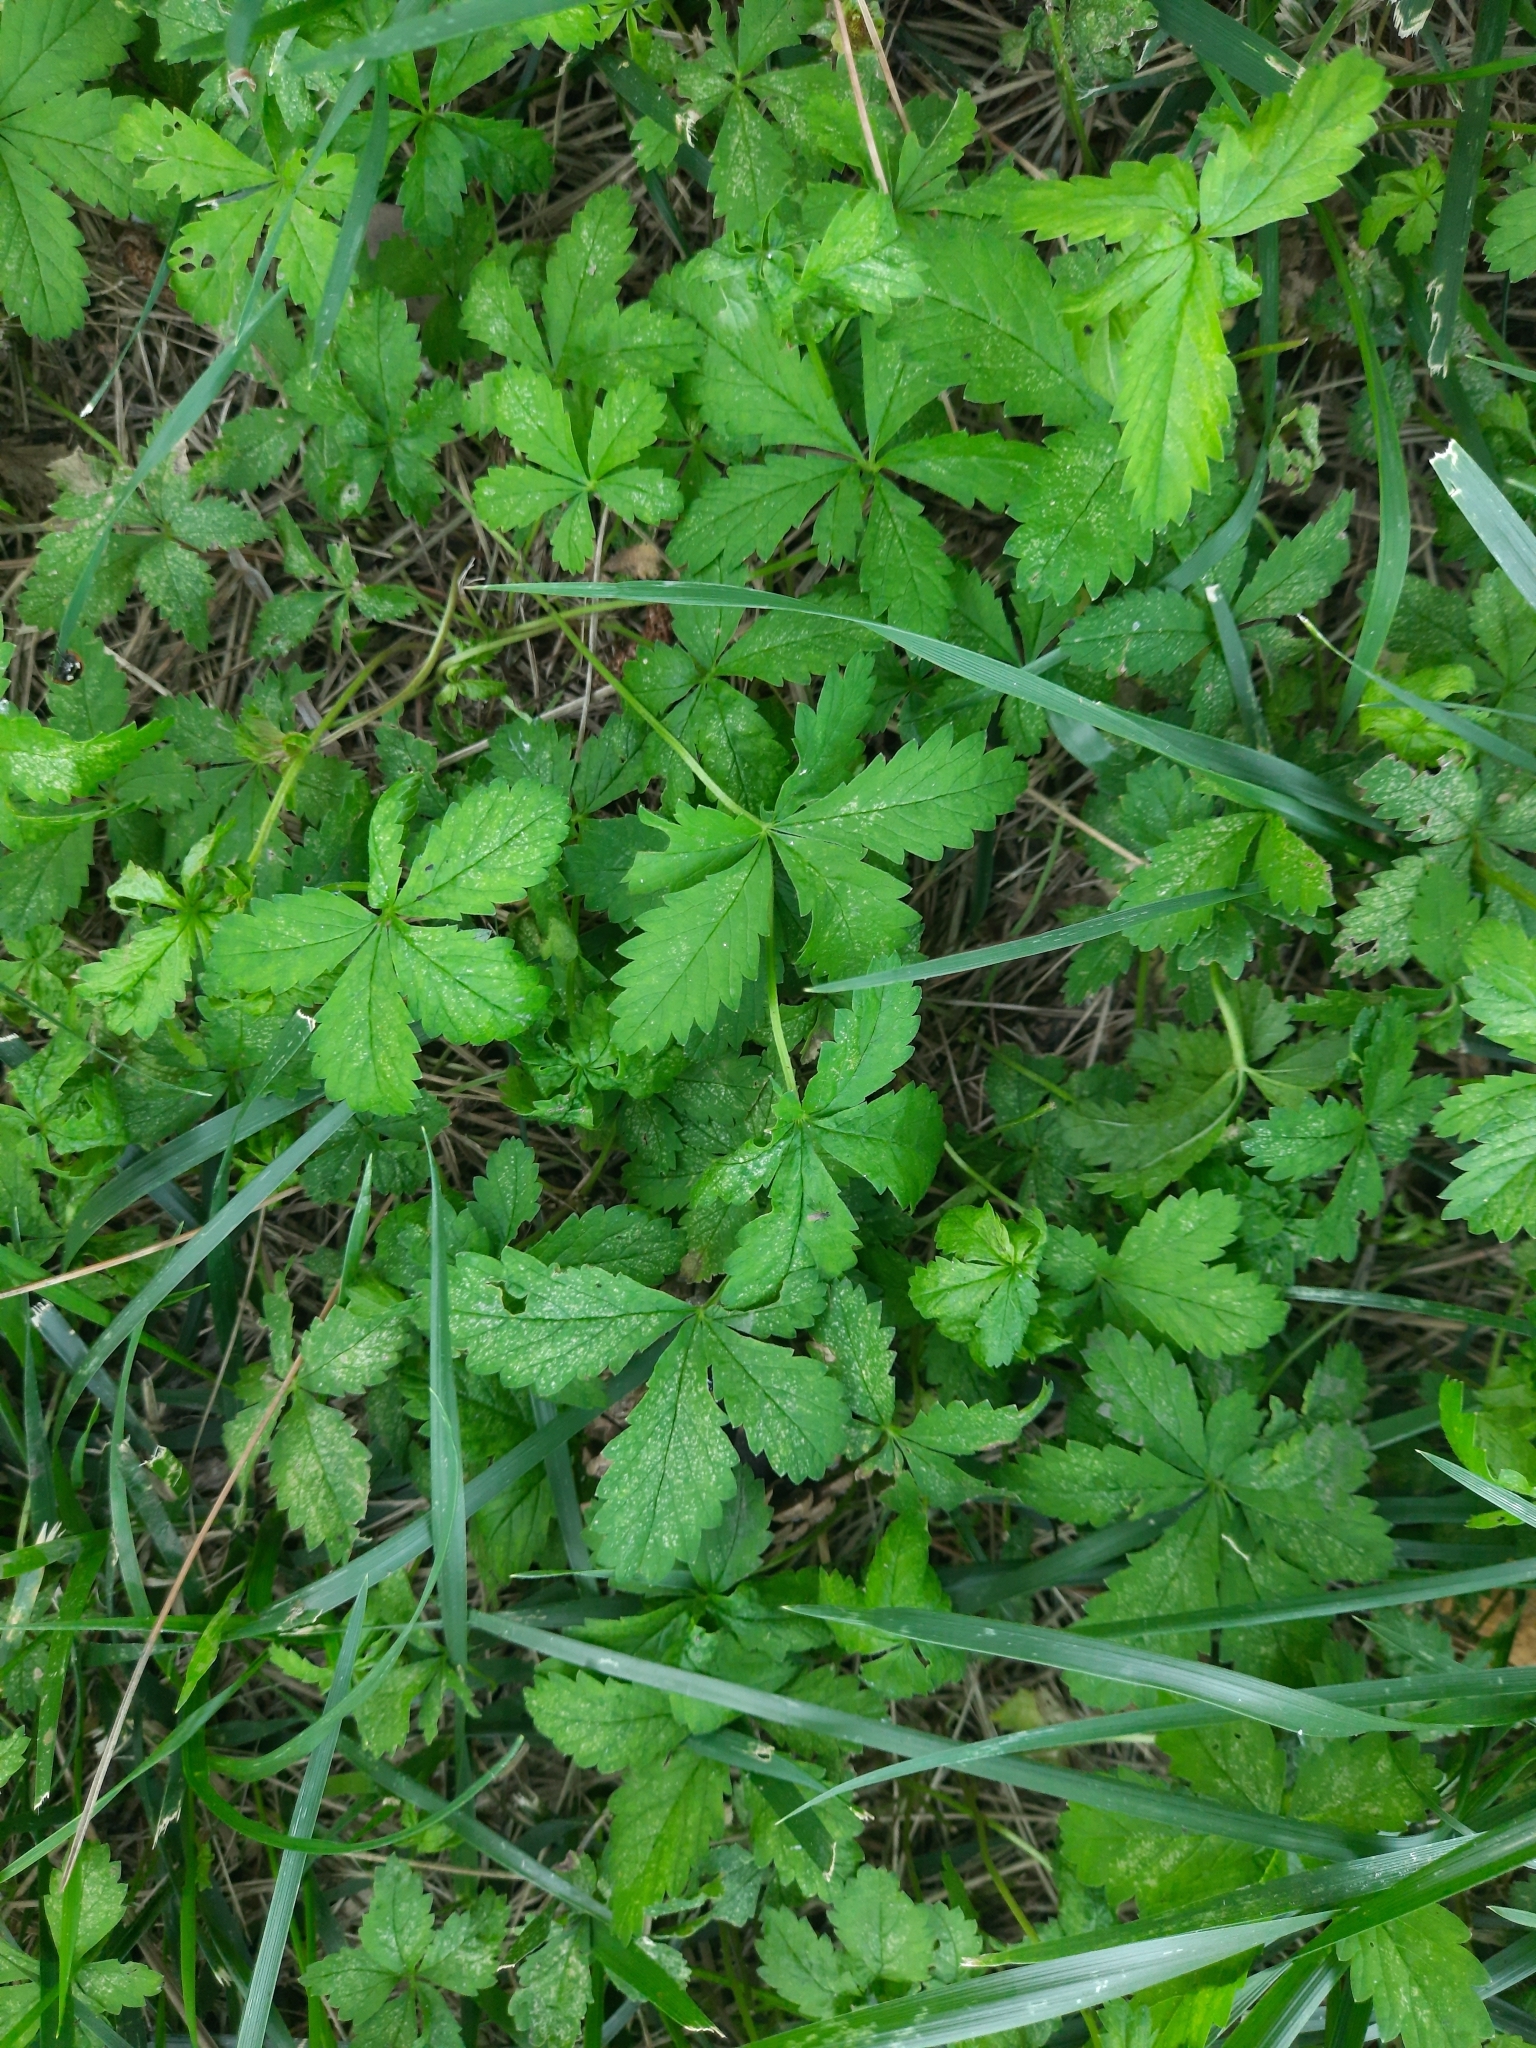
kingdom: Plantae
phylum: Tracheophyta
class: Magnoliopsida
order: Rosales
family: Rosaceae
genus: Potentilla
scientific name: Potentilla reptans
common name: Creeping cinquefoil
